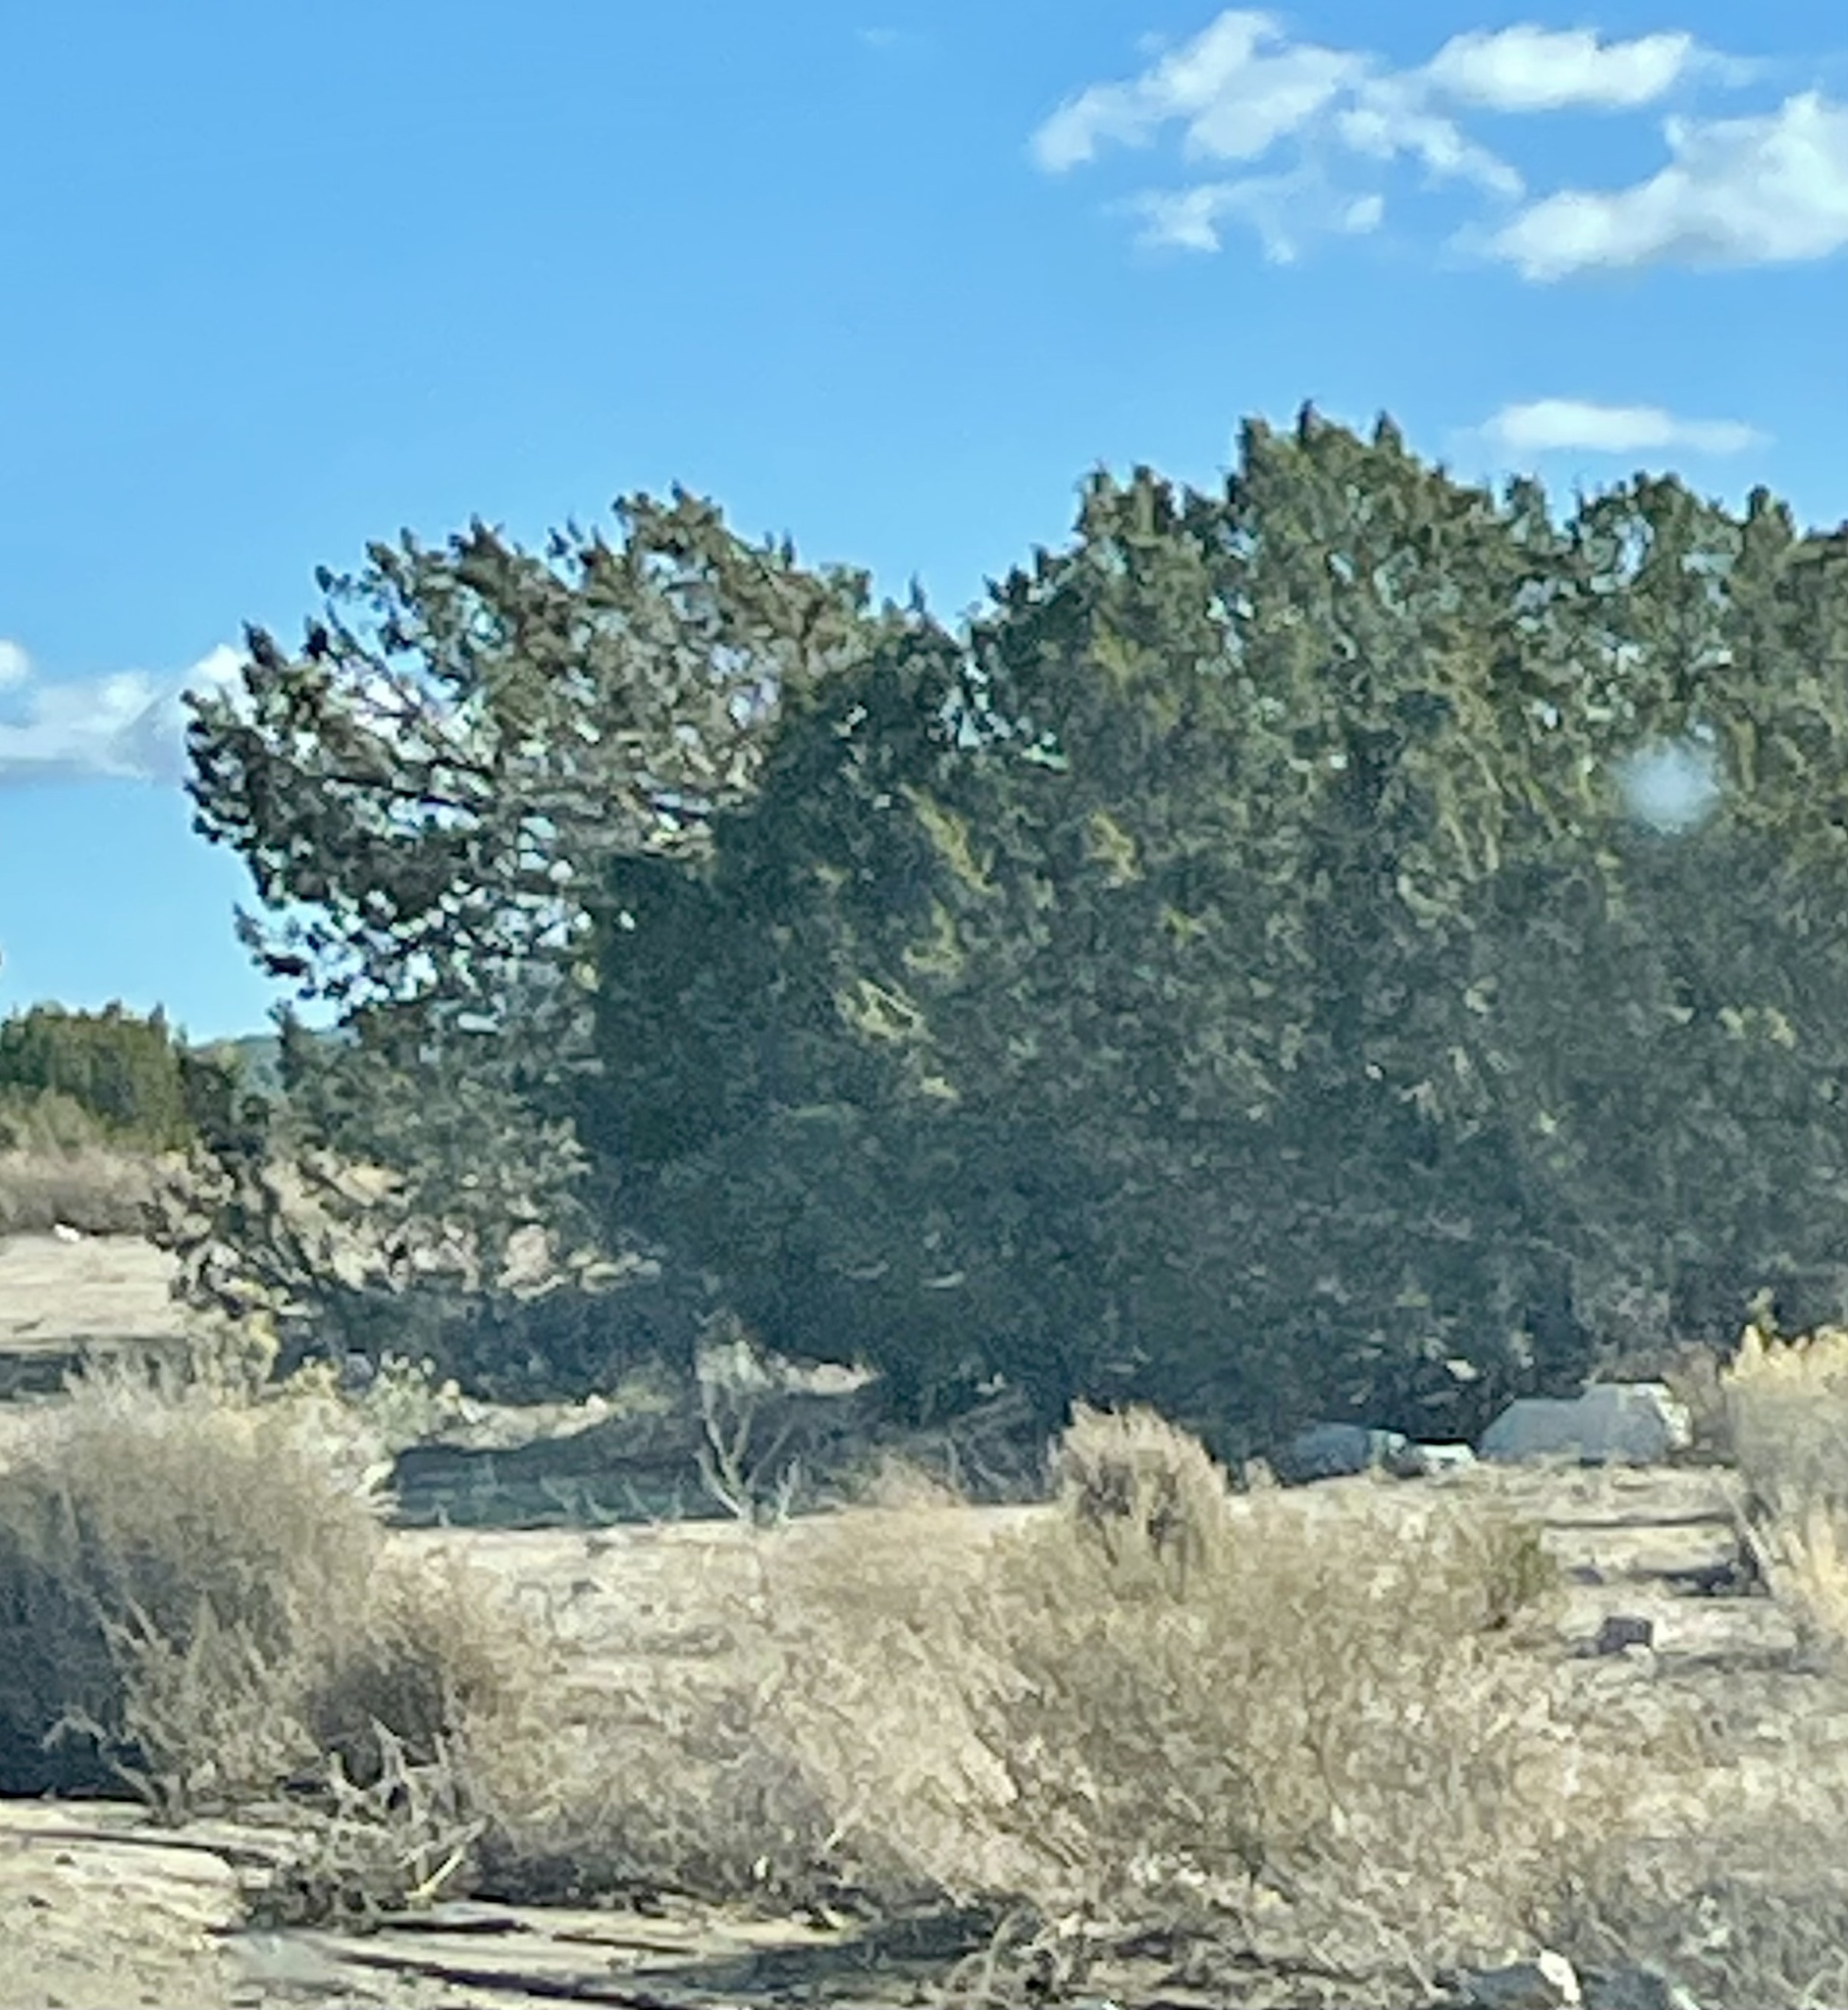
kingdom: Plantae
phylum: Tracheophyta
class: Pinopsida
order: Pinales
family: Cupressaceae
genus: Juniperus
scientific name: Juniperus californica
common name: California juniper
